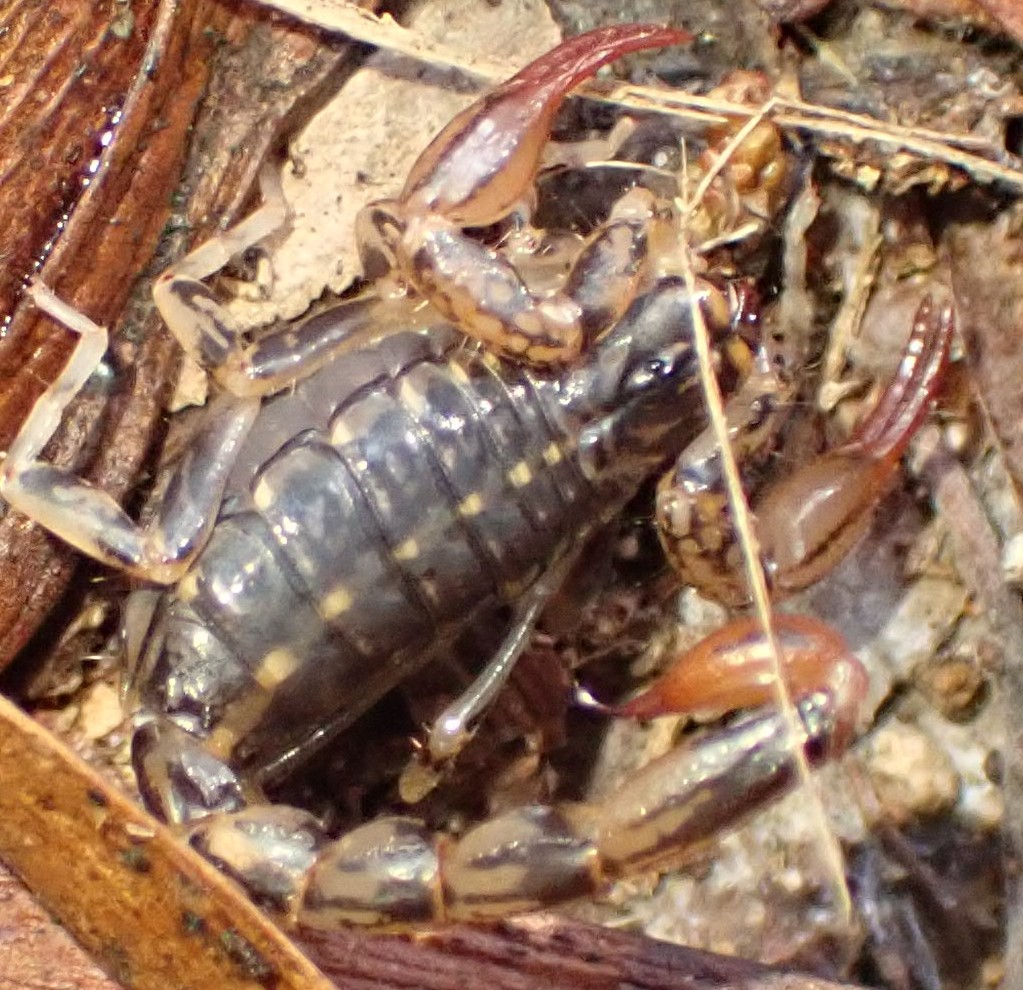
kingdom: Animalia
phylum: Arthropoda
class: Arachnida
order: Scorpiones
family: Bothriuridae
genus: Cercophonius
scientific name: Cercophonius squama
